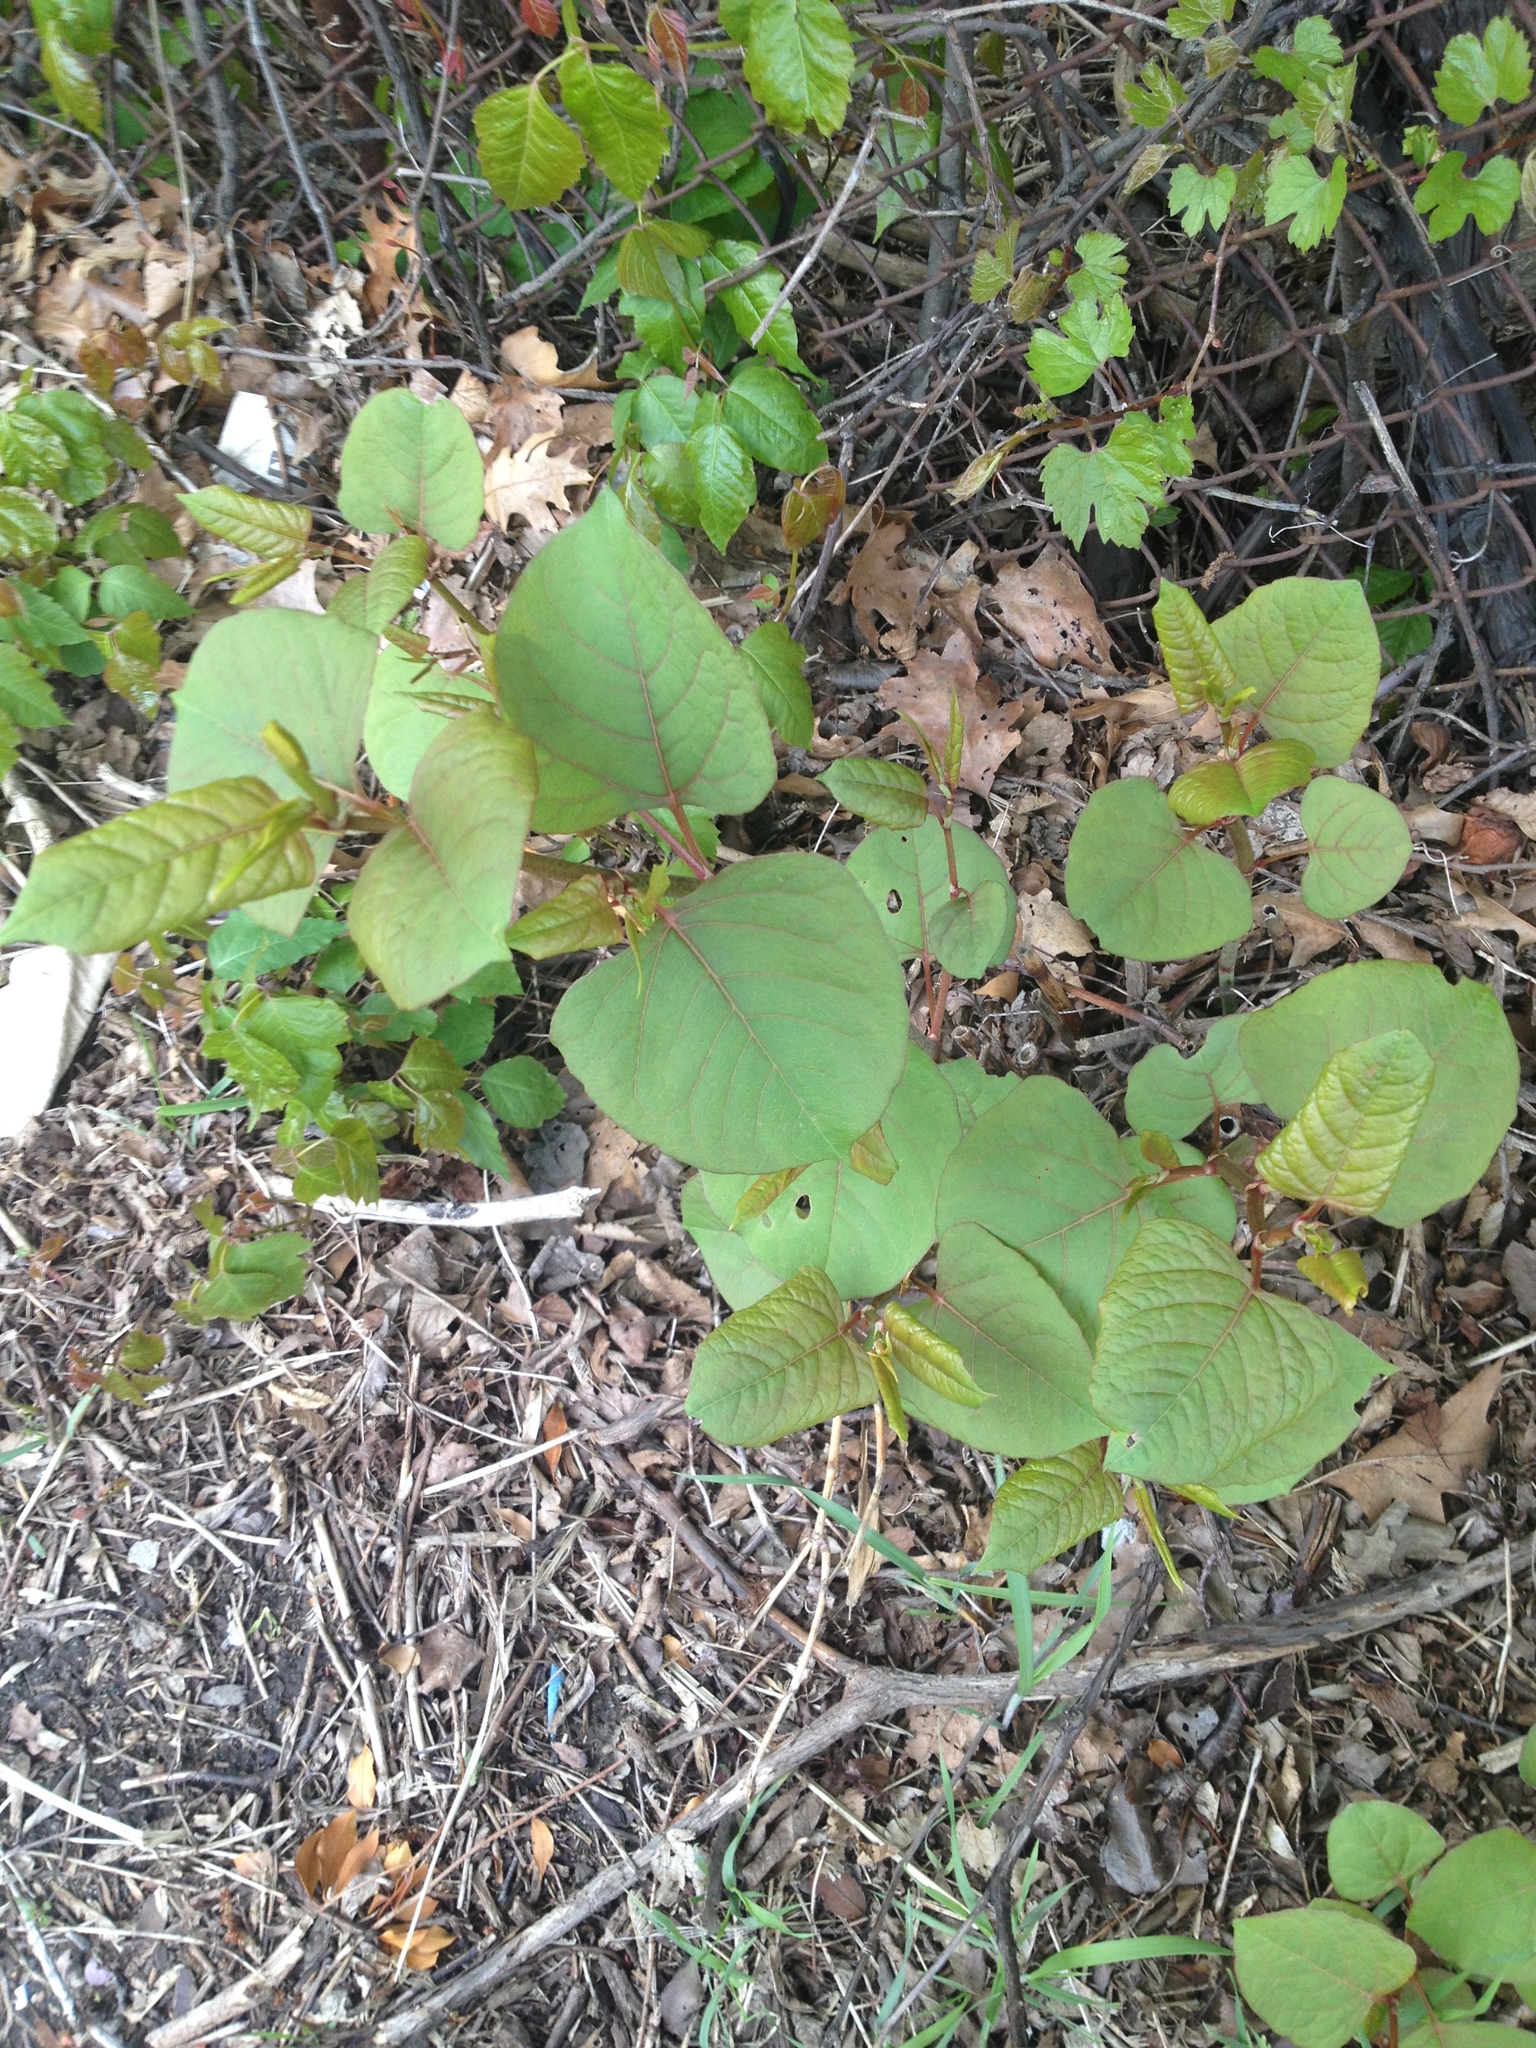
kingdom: Plantae
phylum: Tracheophyta
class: Magnoliopsida
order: Caryophyllales
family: Polygonaceae
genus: Reynoutria
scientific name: Reynoutria japonica
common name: Japanese knotweed
